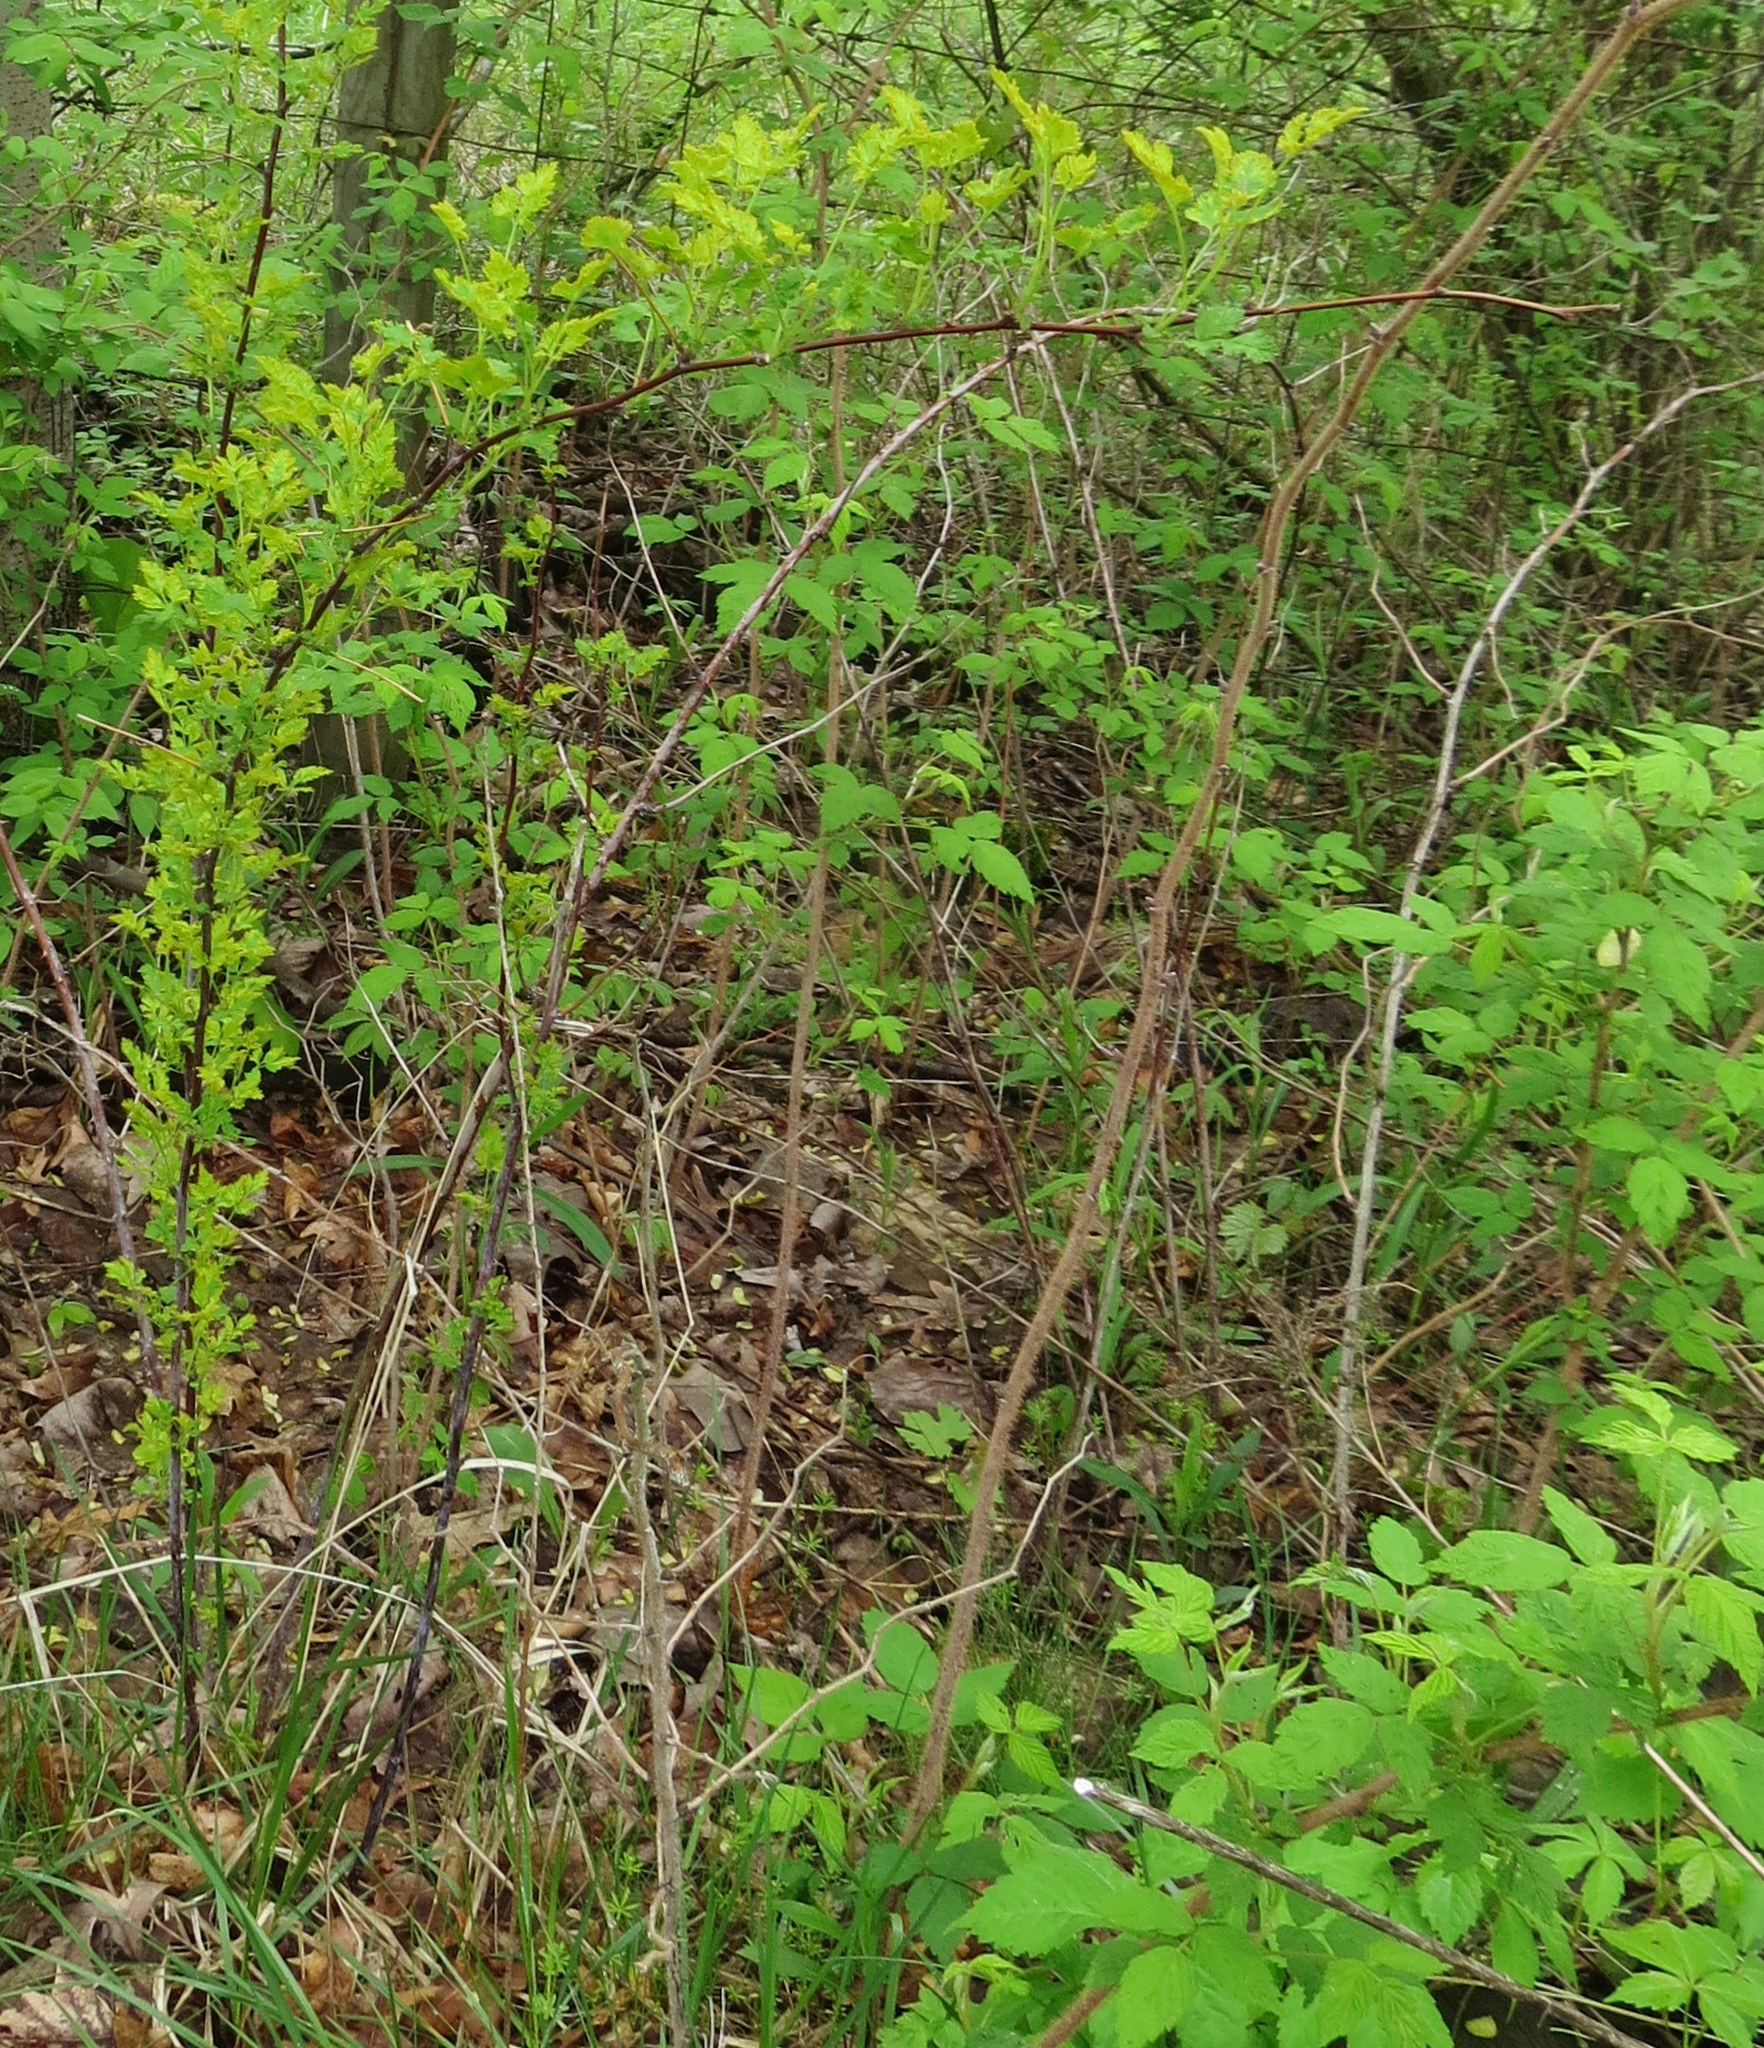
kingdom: Plantae
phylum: Tracheophyta
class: Magnoliopsida
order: Rosales
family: Rosaceae
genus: Rubus
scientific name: Rubus occidentalis
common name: Black raspberry
